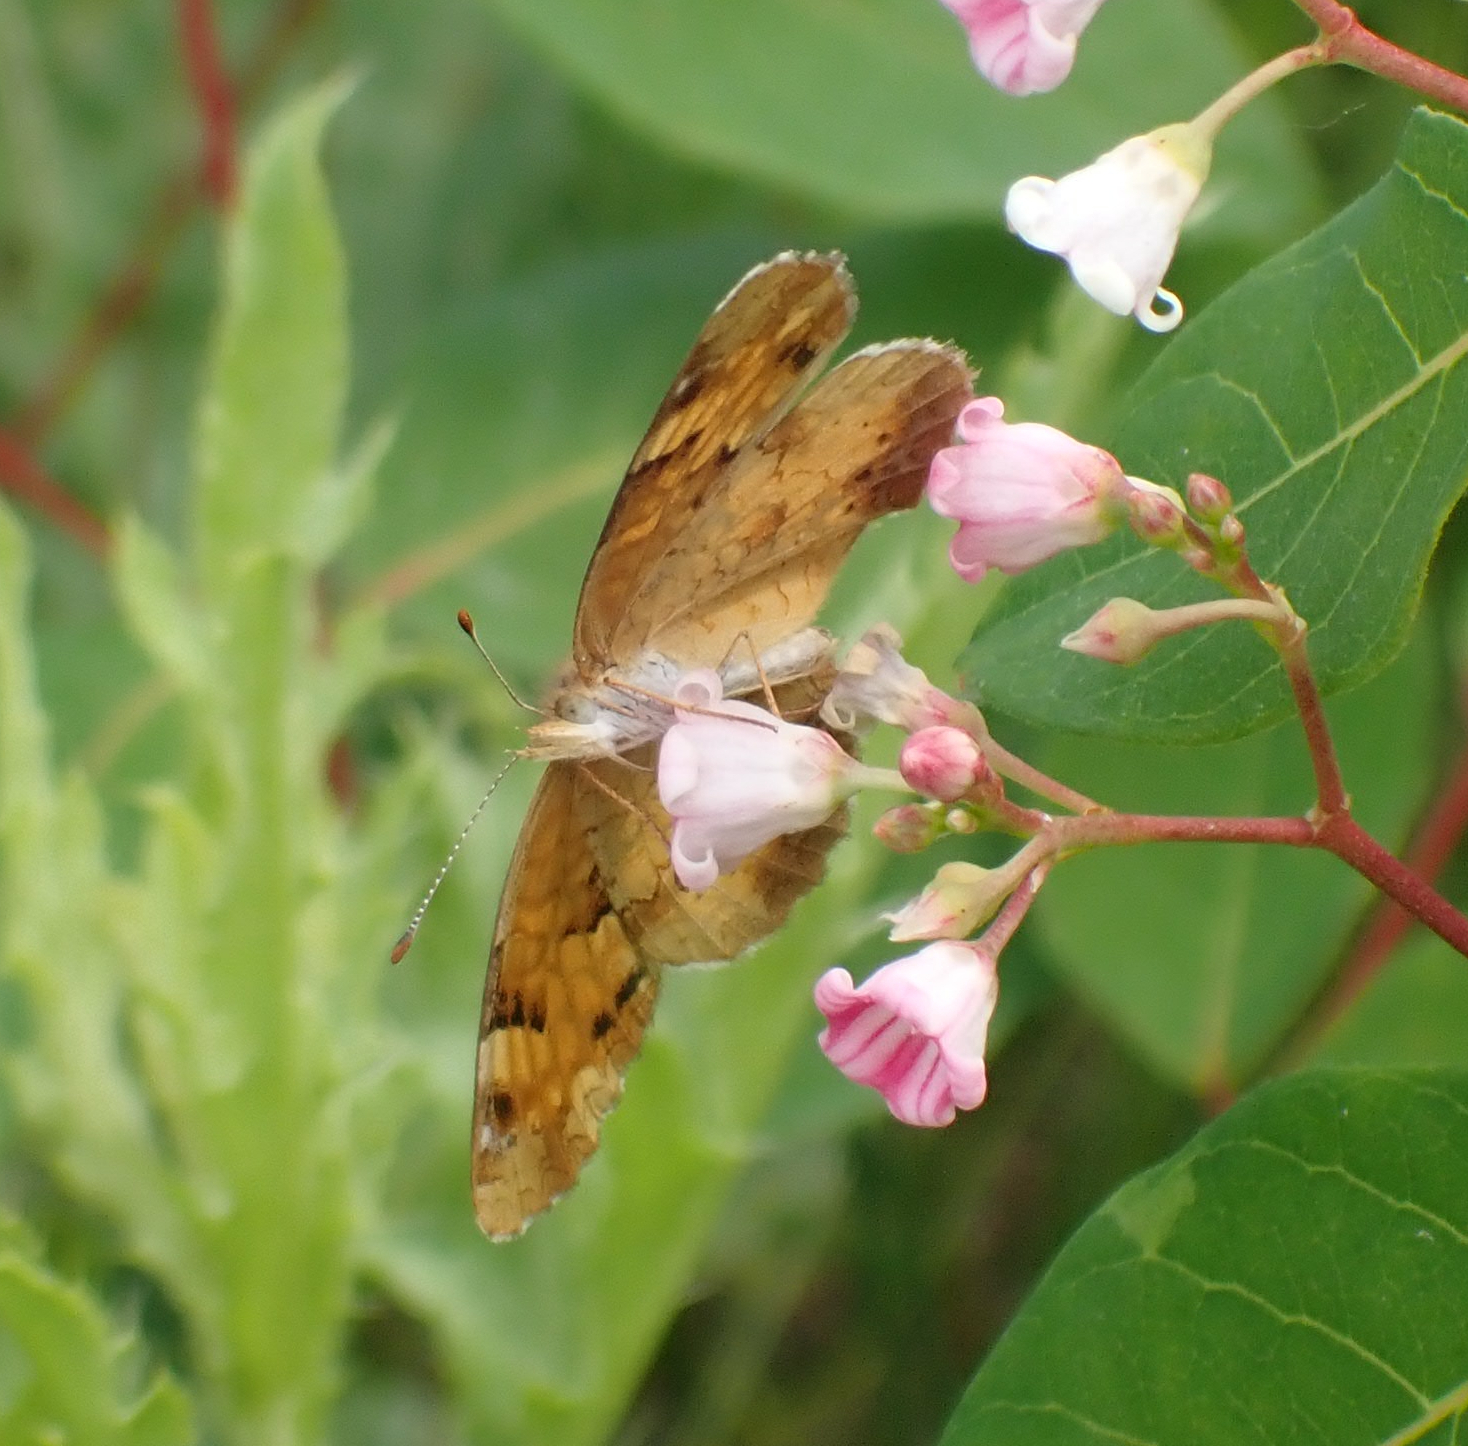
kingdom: Animalia
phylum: Arthropoda
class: Insecta
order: Lepidoptera
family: Nymphalidae
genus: Phyciodes
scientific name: Phyciodes tharos
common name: Pearl crescent
